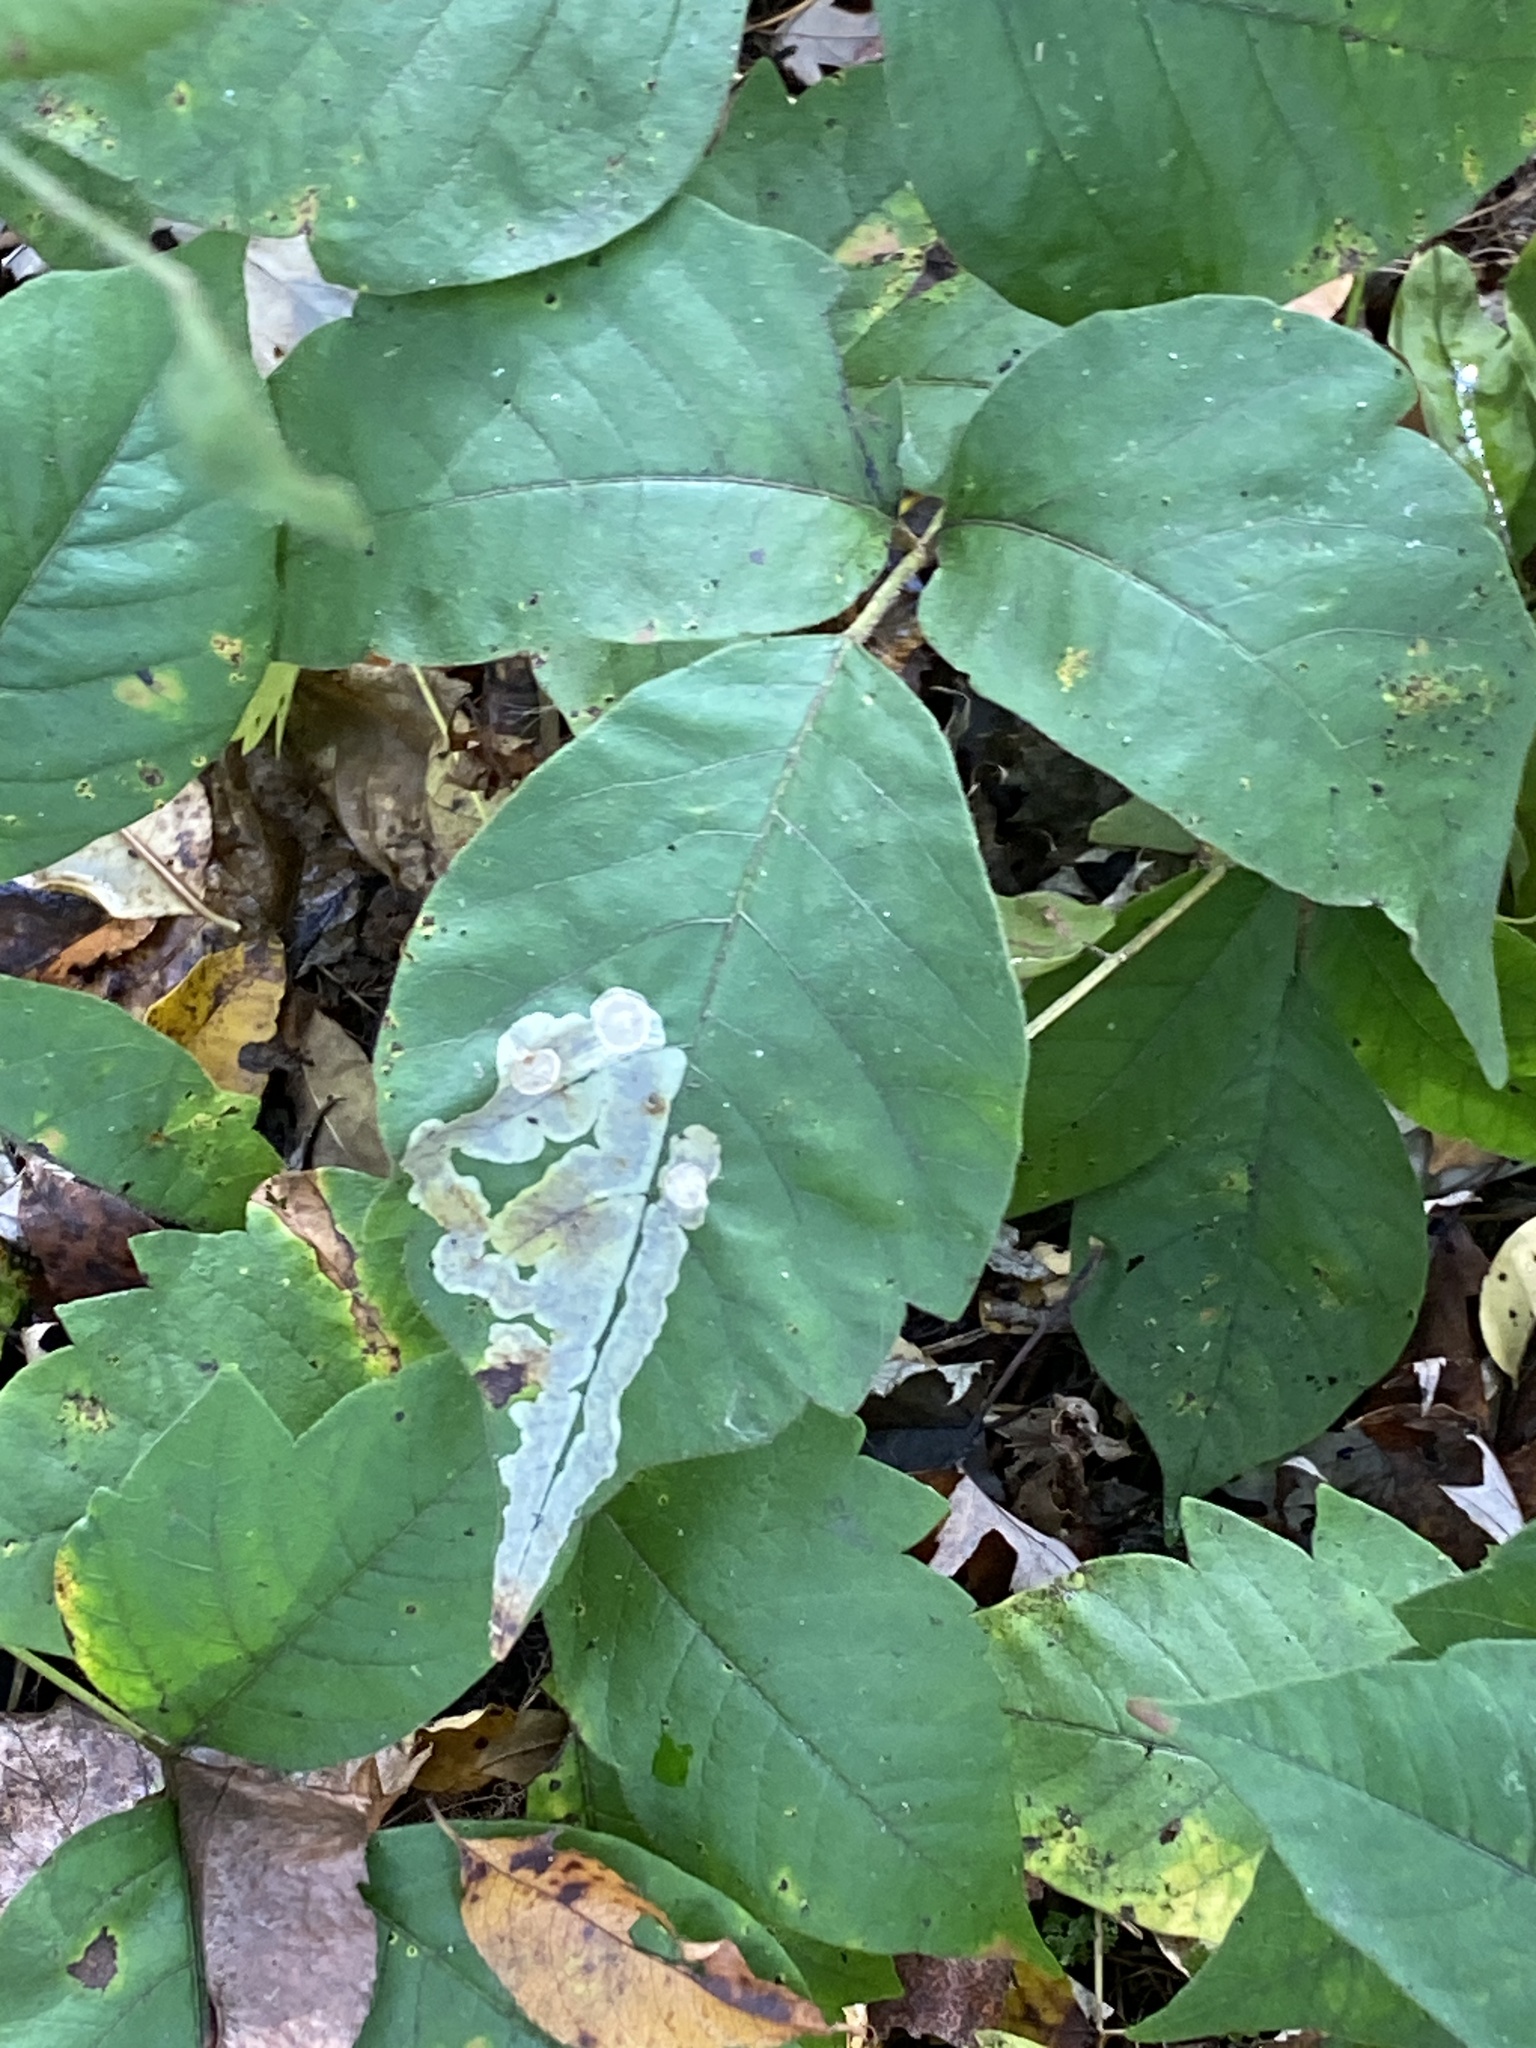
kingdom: Animalia
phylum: Arthropoda
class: Insecta
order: Lepidoptera
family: Gracillariidae
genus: Cameraria
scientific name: Cameraria guttifinitella
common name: Poison ivy leaf-miner moth
